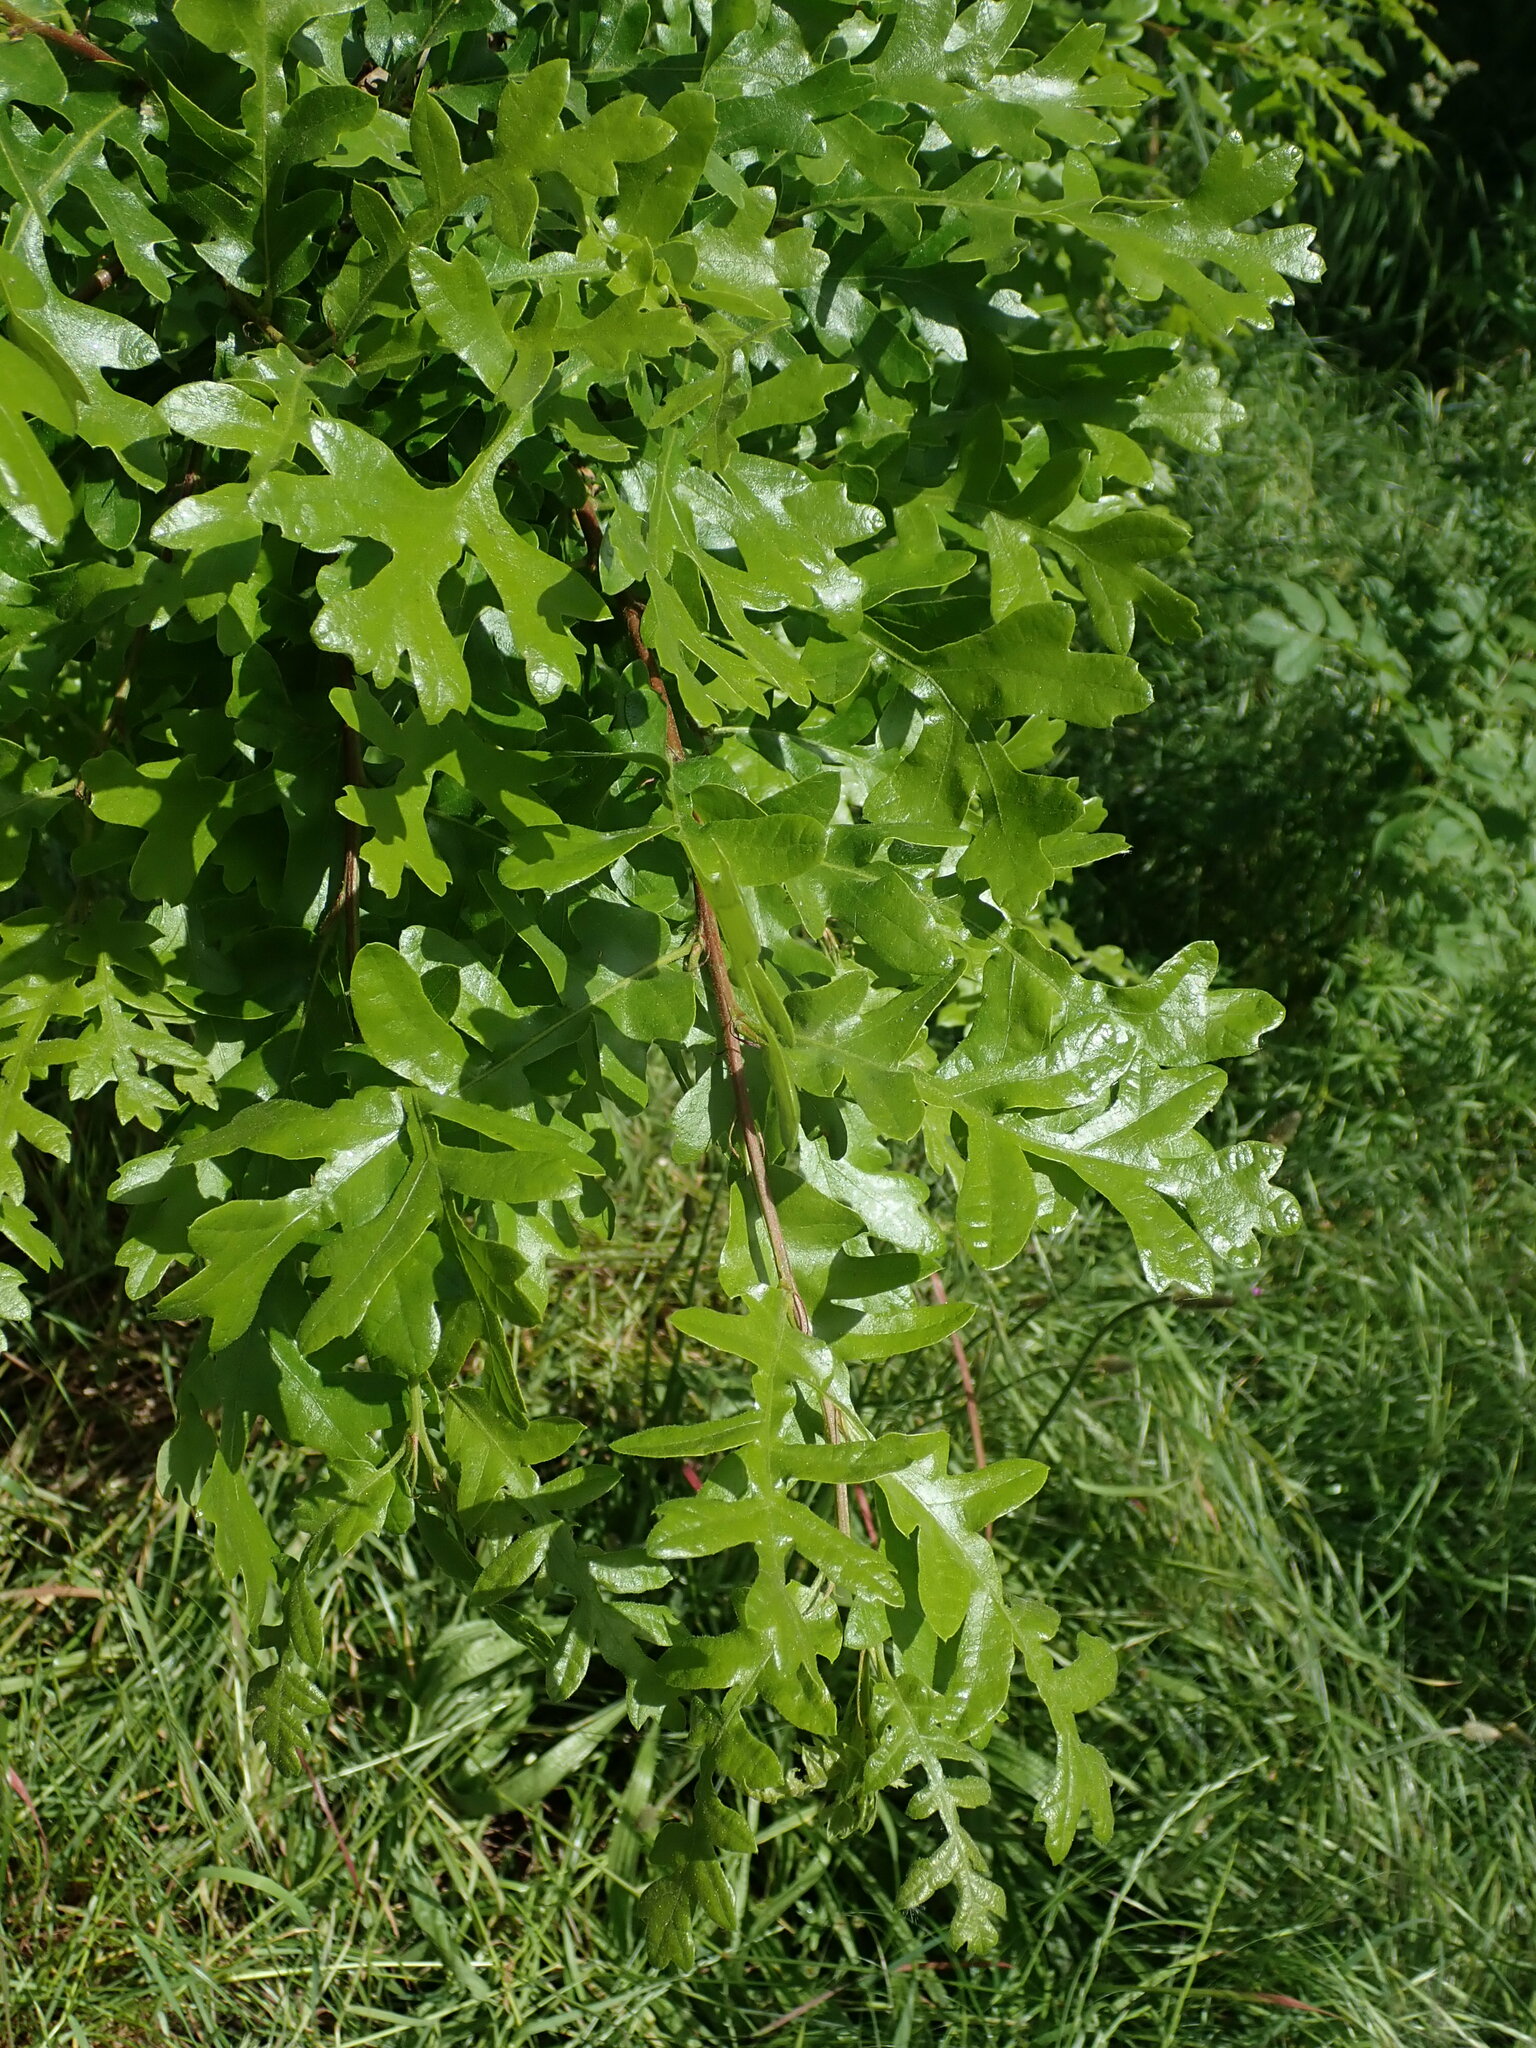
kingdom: Plantae
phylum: Tracheophyta
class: Magnoliopsida
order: Fagales
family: Fagaceae
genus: Quercus
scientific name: Quercus cerris
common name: Turkey oak
